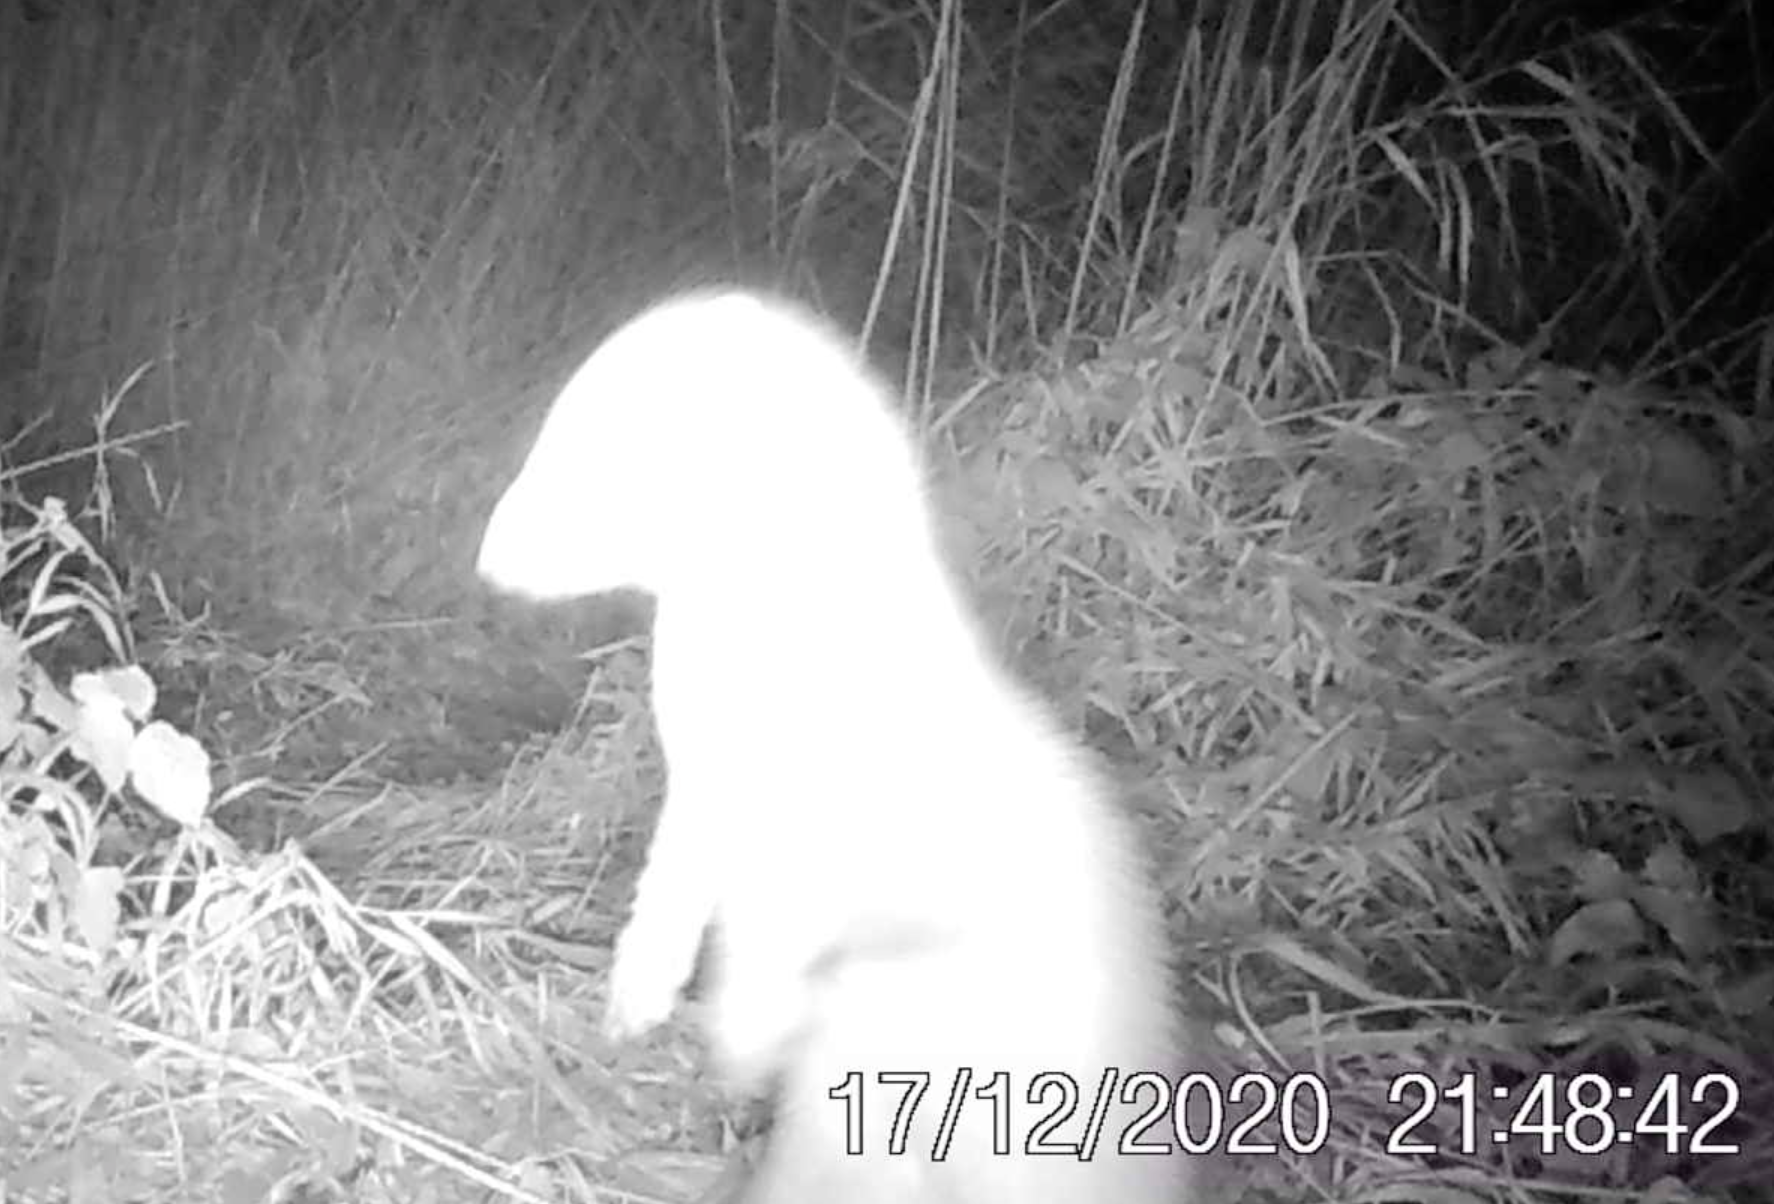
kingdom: Animalia
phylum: Chordata
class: Mammalia
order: Carnivora
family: Mustelidae
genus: Martes
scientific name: Martes foina
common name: Beech marten
